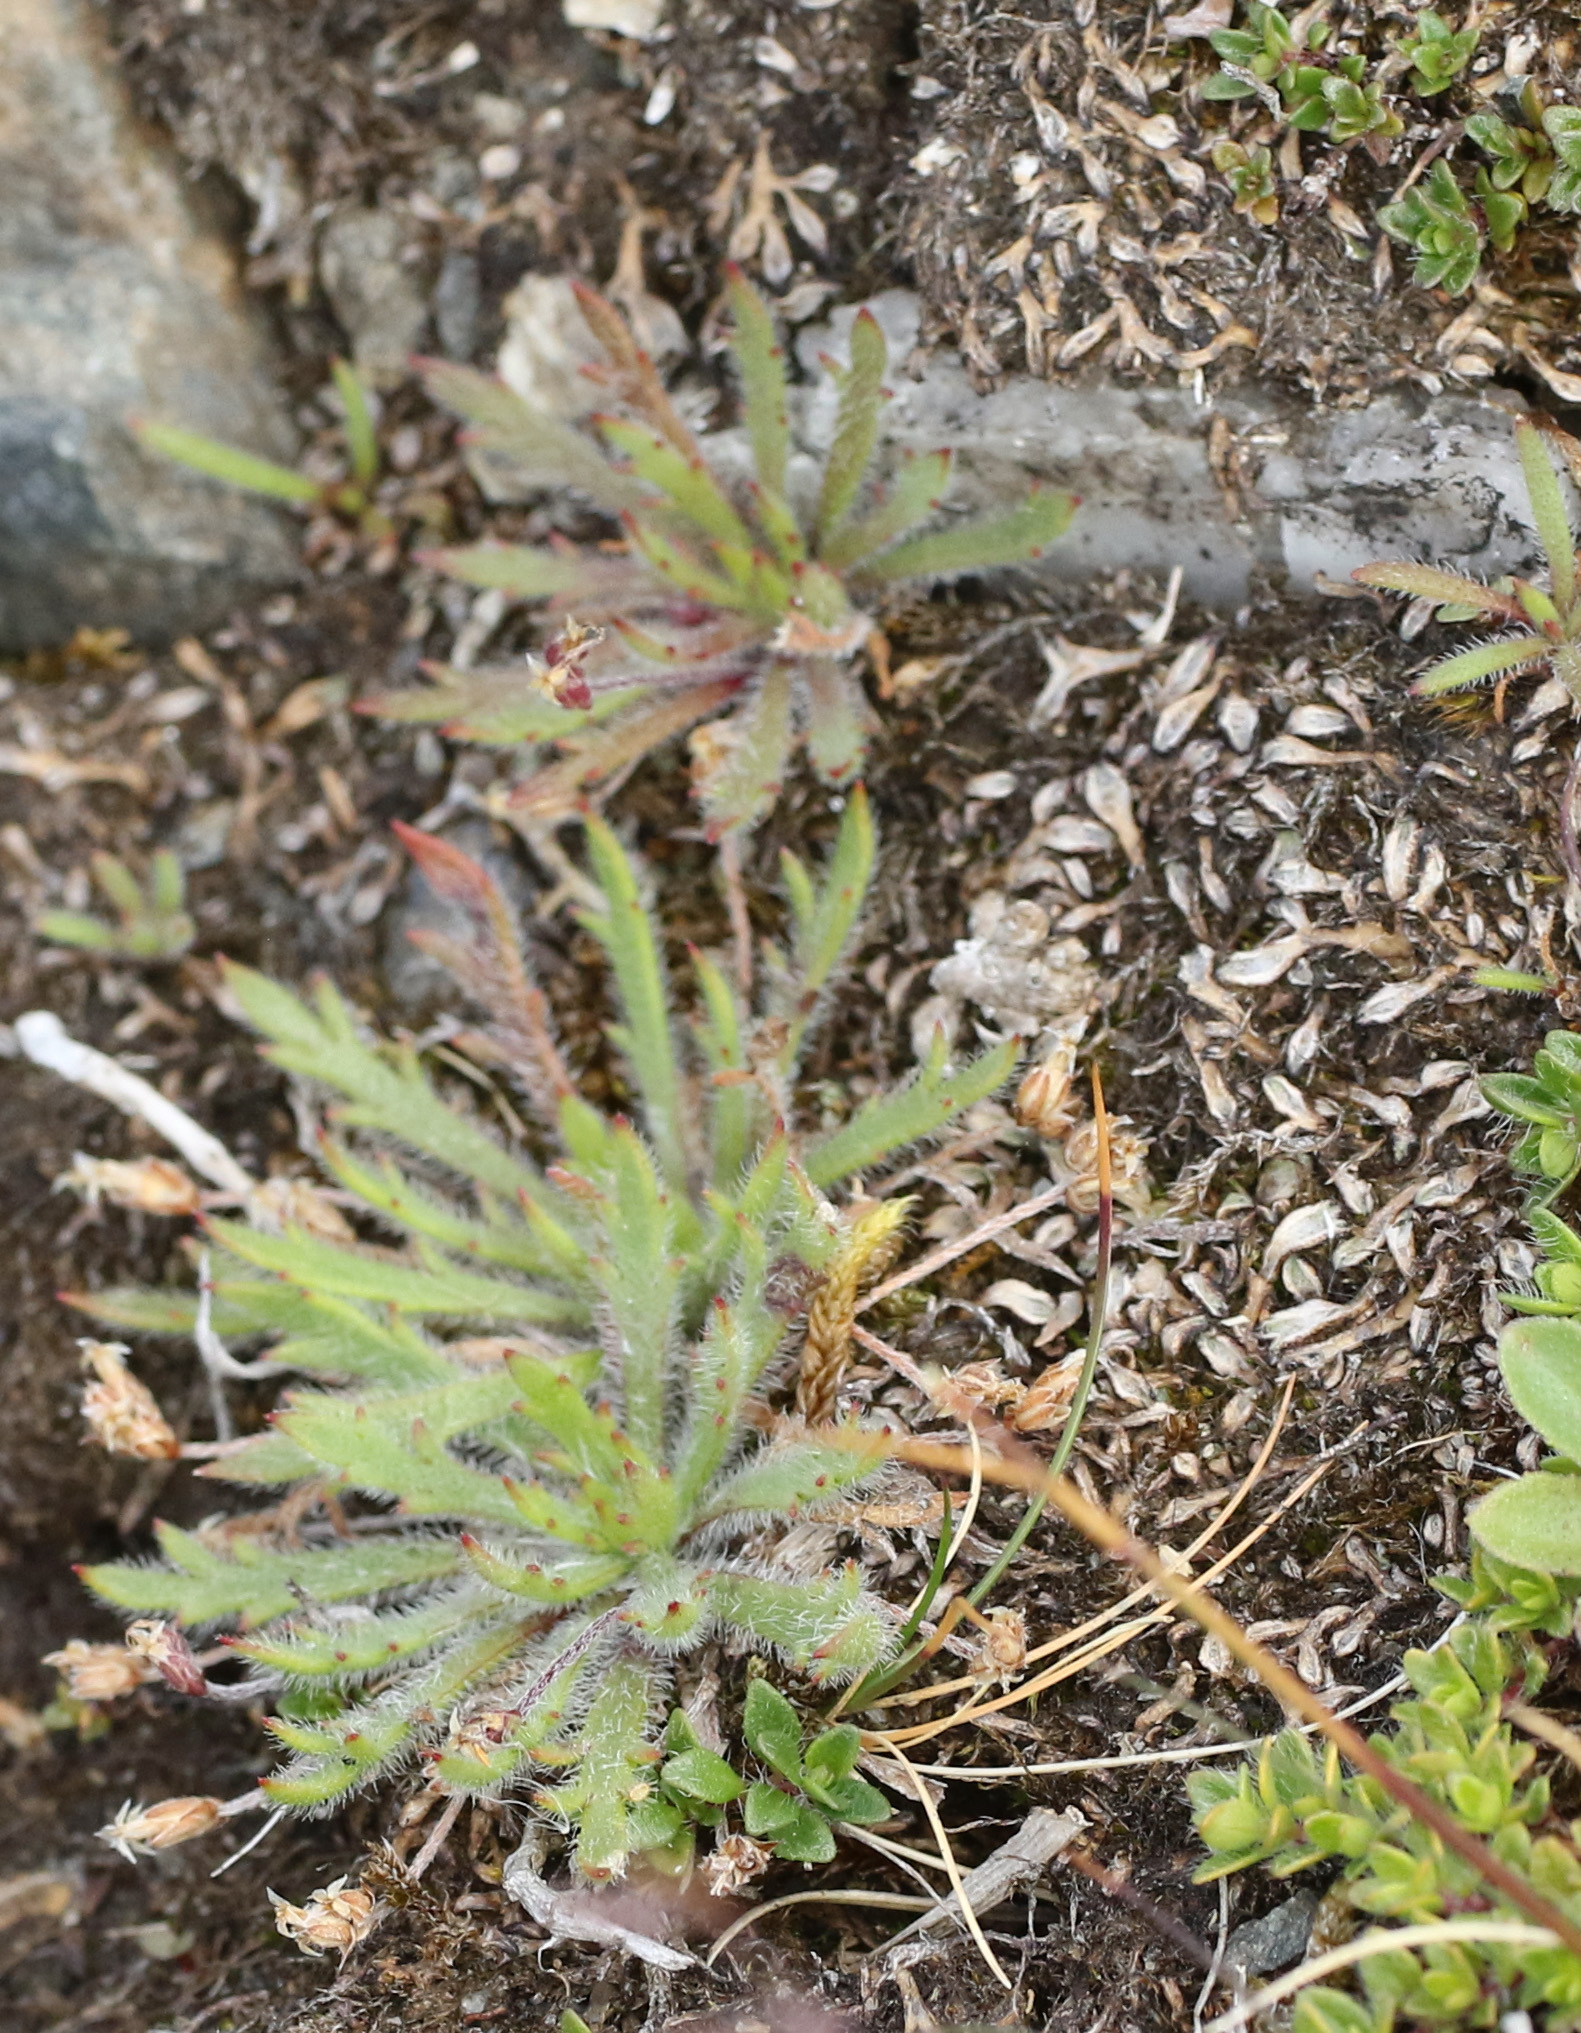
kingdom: Plantae
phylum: Tracheophyta
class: Magnoliopsida
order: Lamiales
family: Plantaginaceae
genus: Plantago
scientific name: Plantago coronopus
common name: Buck's-horn plantain
